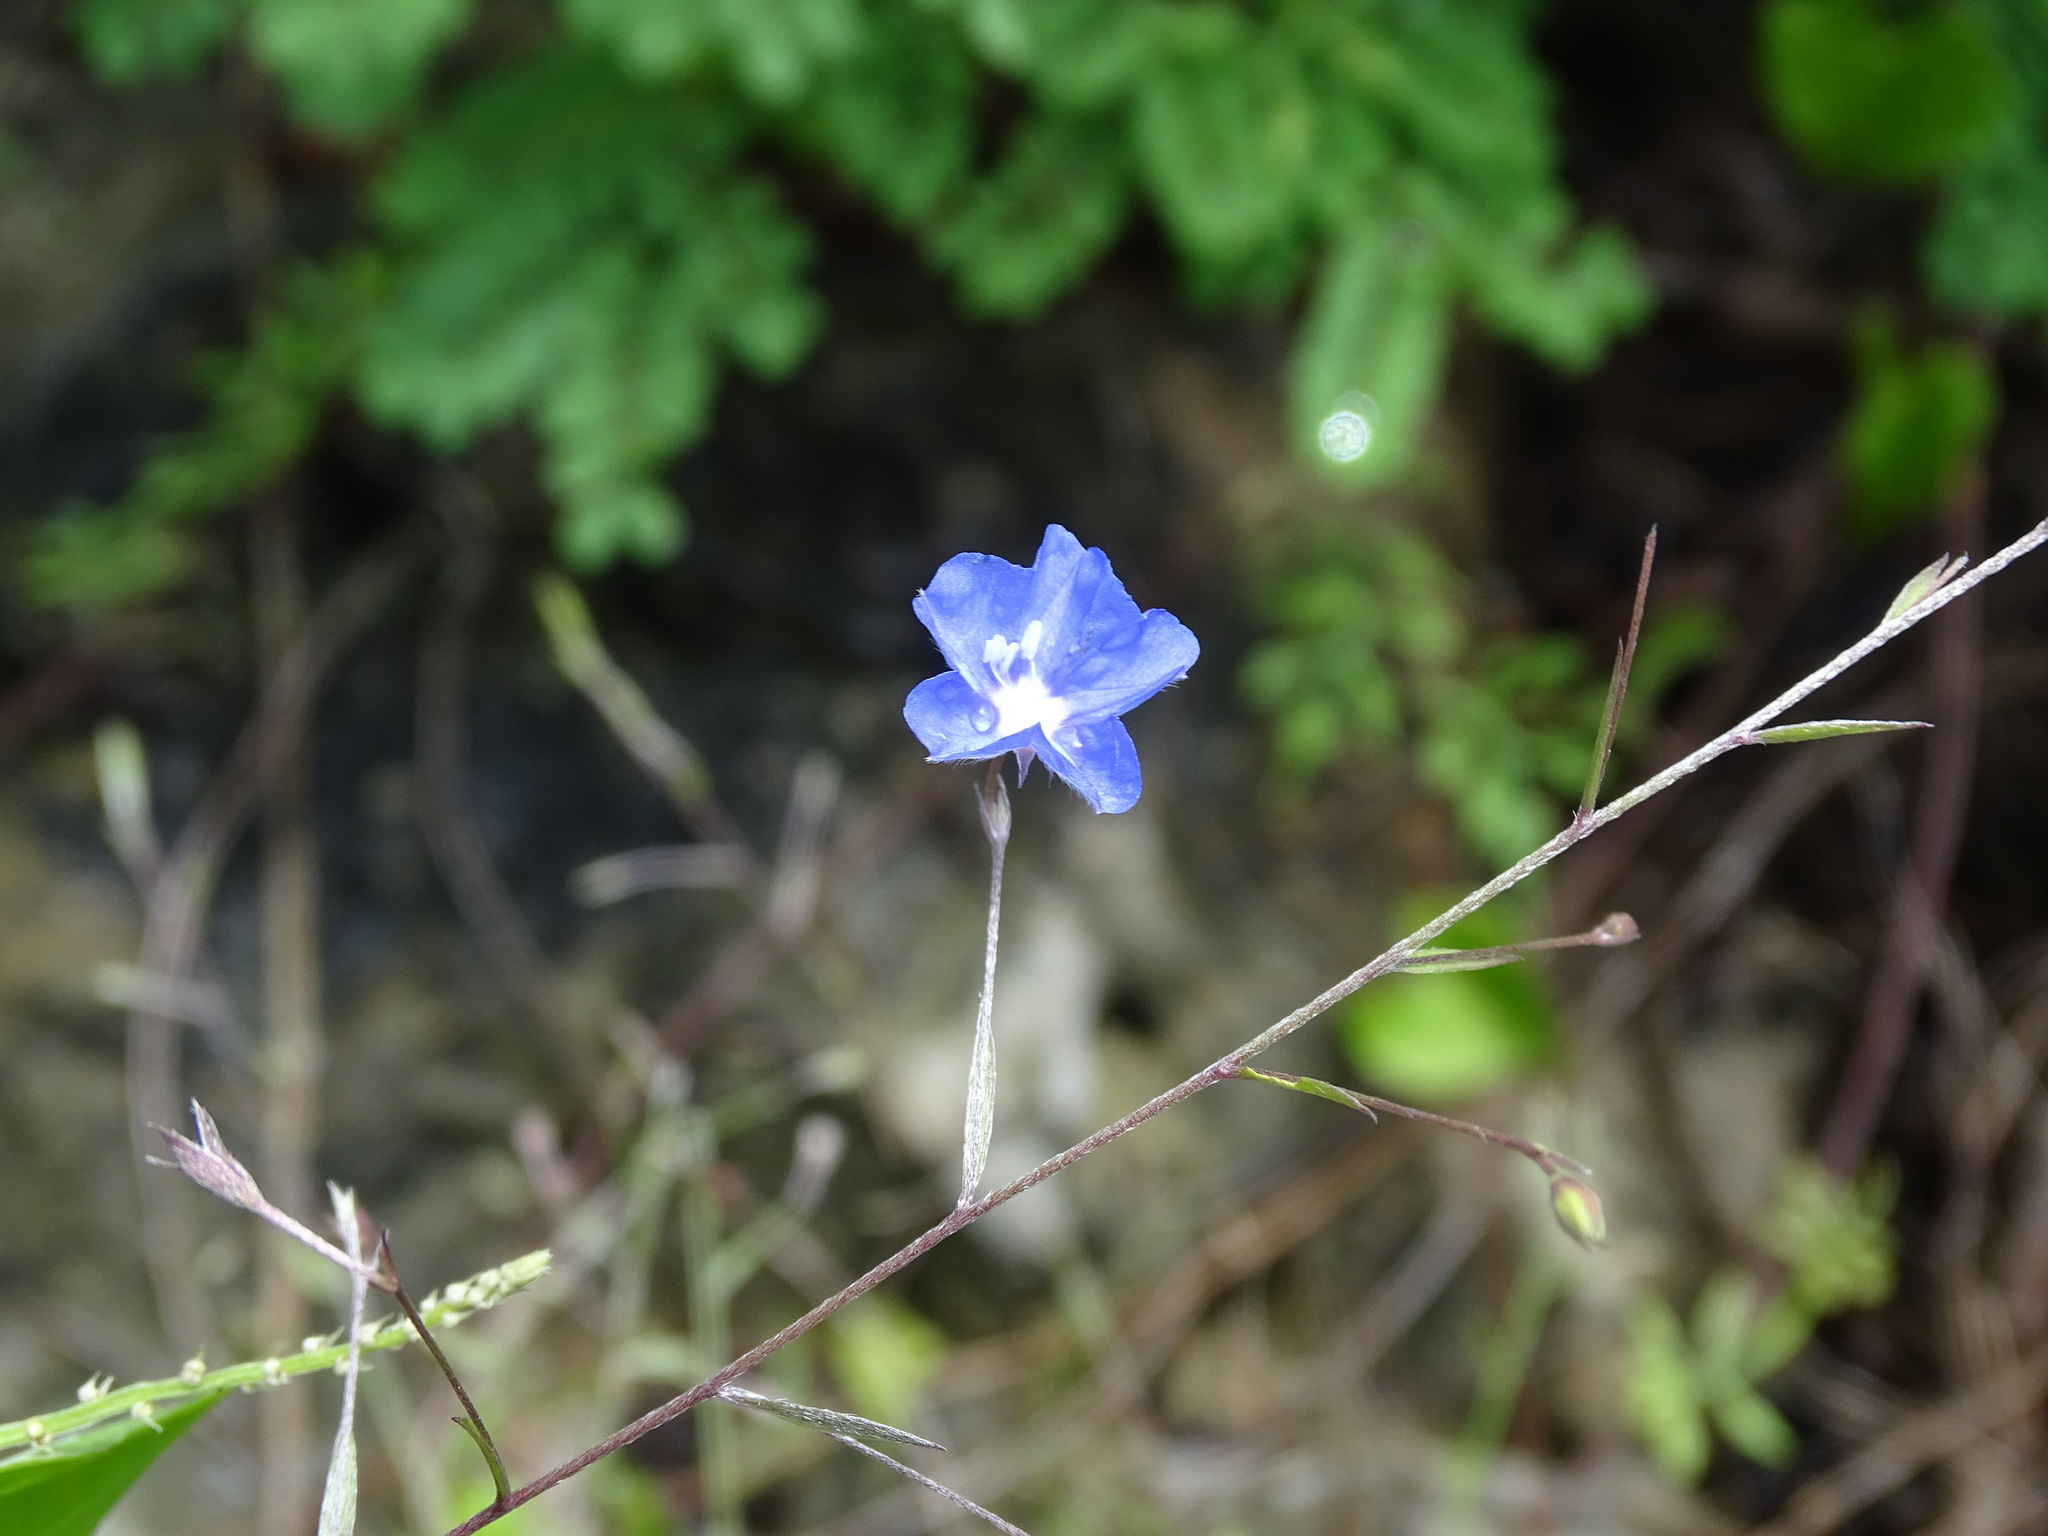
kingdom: Plantae
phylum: Tracheophyta
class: Magnoliopsida
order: Solanales
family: Convolvulaceae
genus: Evolvulus
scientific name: Evolvulus alsinoides
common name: Slender dwarf morning-glory
